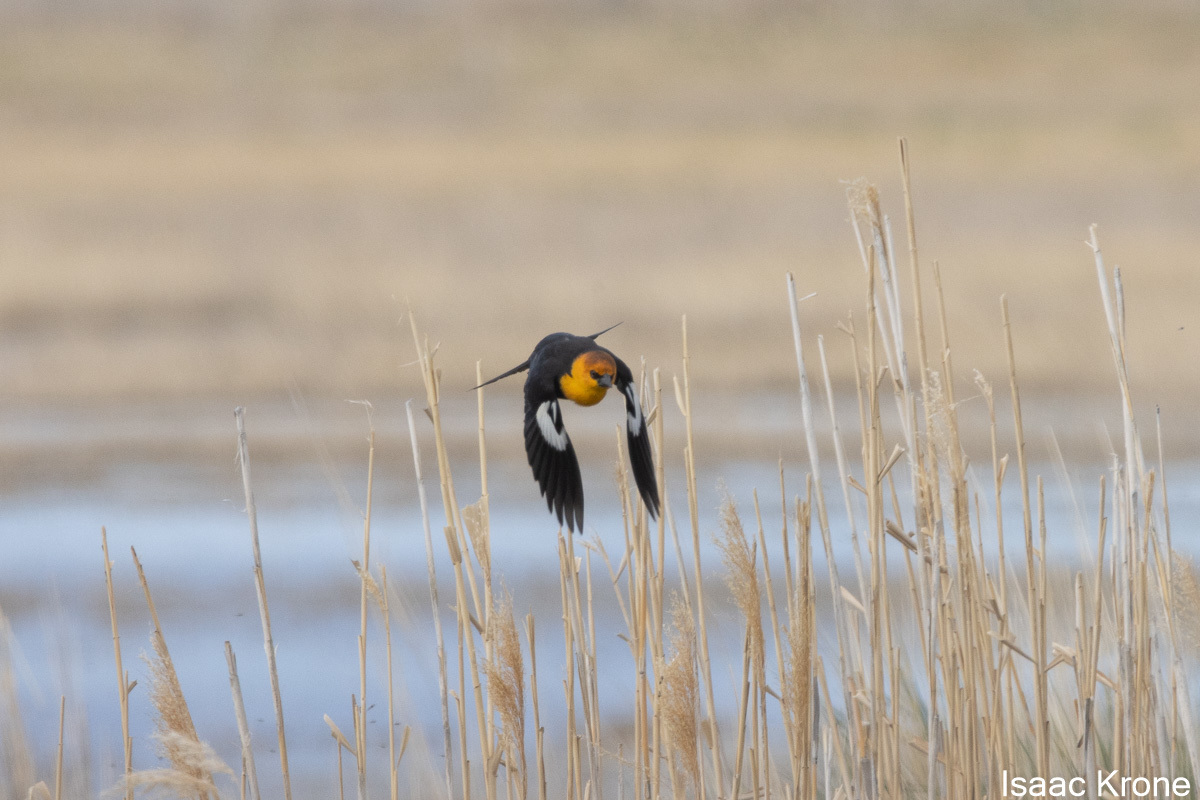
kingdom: Animalia
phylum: Chordata
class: Aves
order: Passeriformes
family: Icteridae
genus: Xanthocephalus
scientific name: Xanthocephalus xanthocephalus
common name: Yellow-headed blackbird
